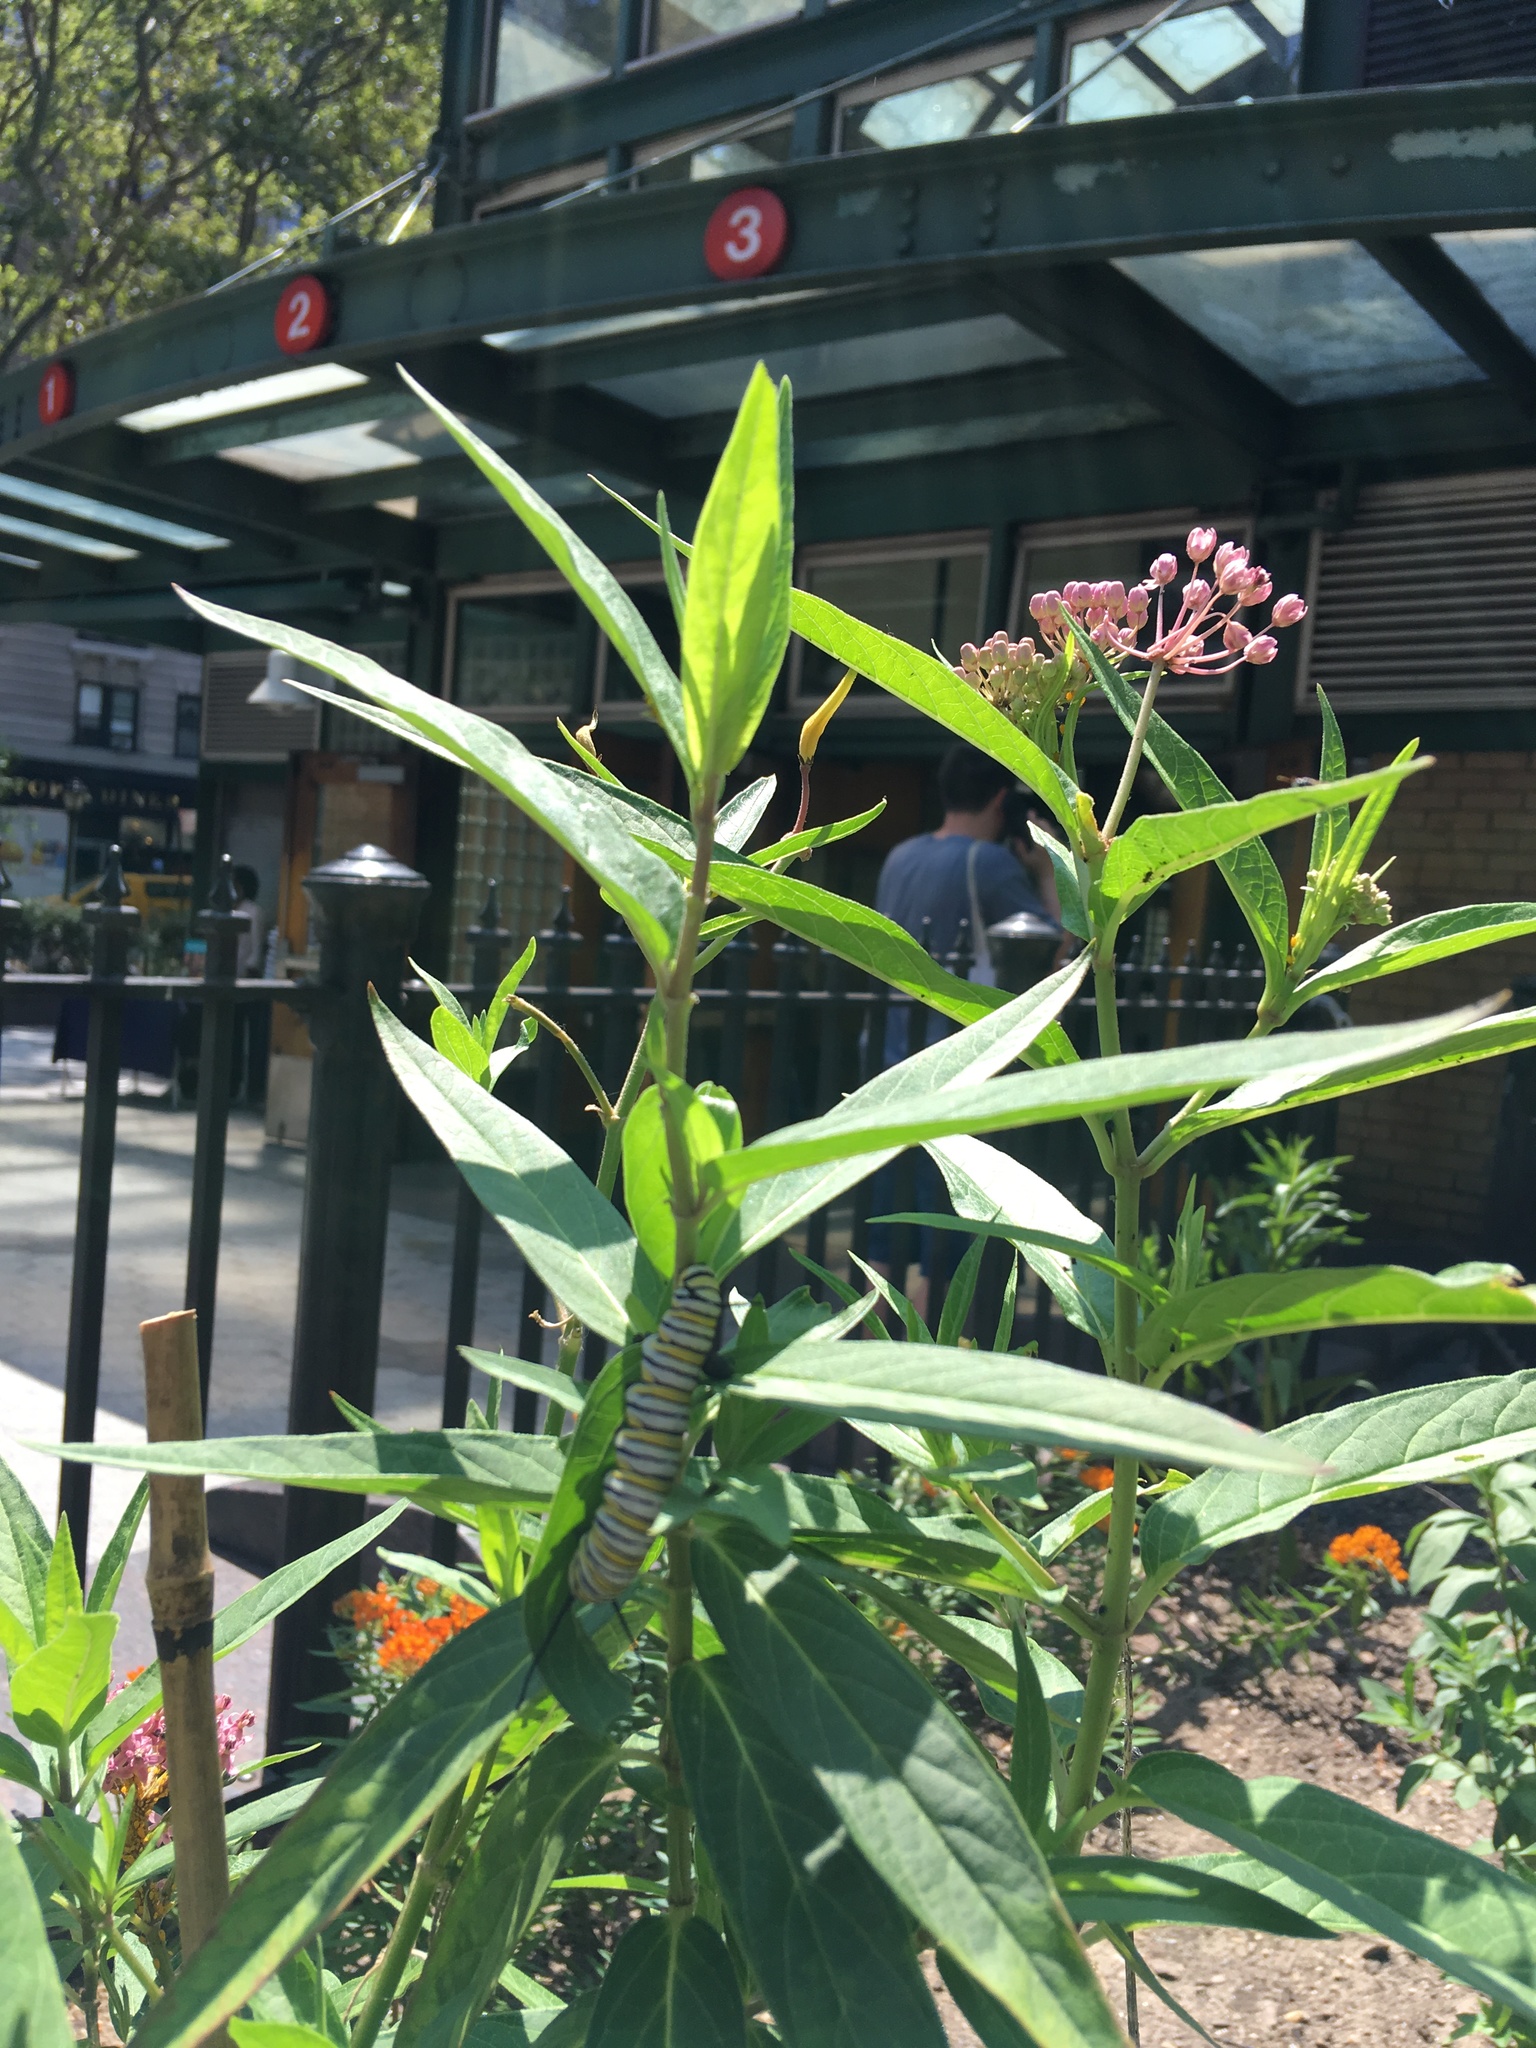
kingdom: Animalia
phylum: Arthropoda
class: Insecta
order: Lepidoptera
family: Nymphalidae
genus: Danaus
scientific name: Danaus plexippus
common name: Monarch
